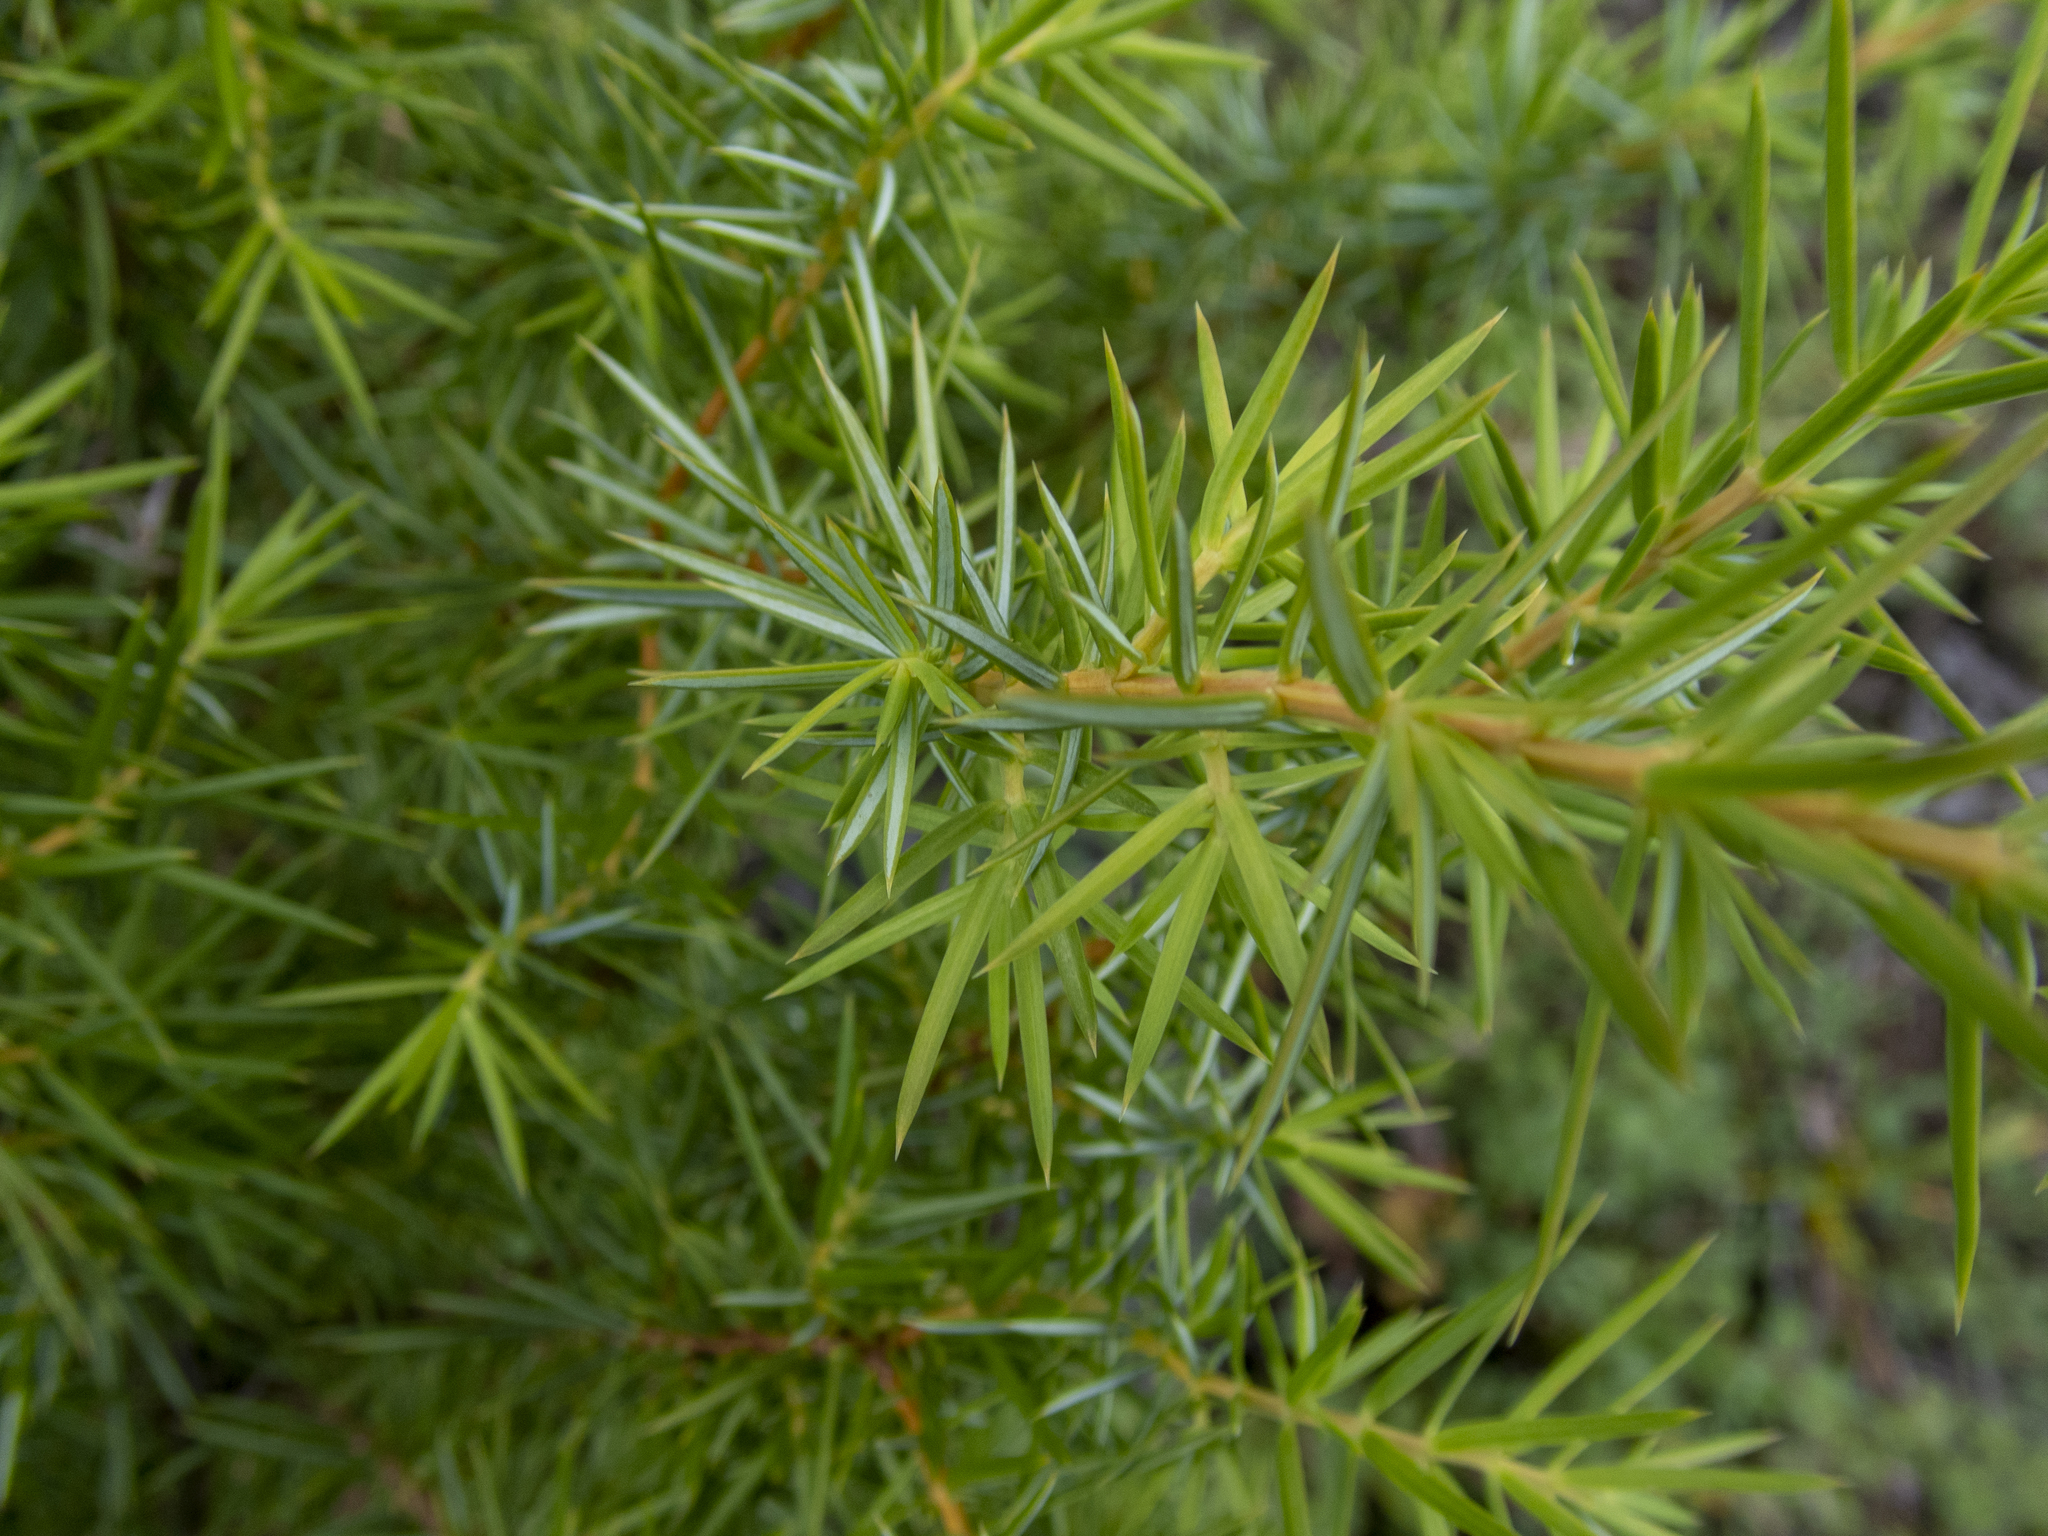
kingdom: Plantae
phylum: Tracheophyta
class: Pinopsida
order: Pinales
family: Cupressaceae
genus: Juniperus
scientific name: Juniperus communis
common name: Common juniper
